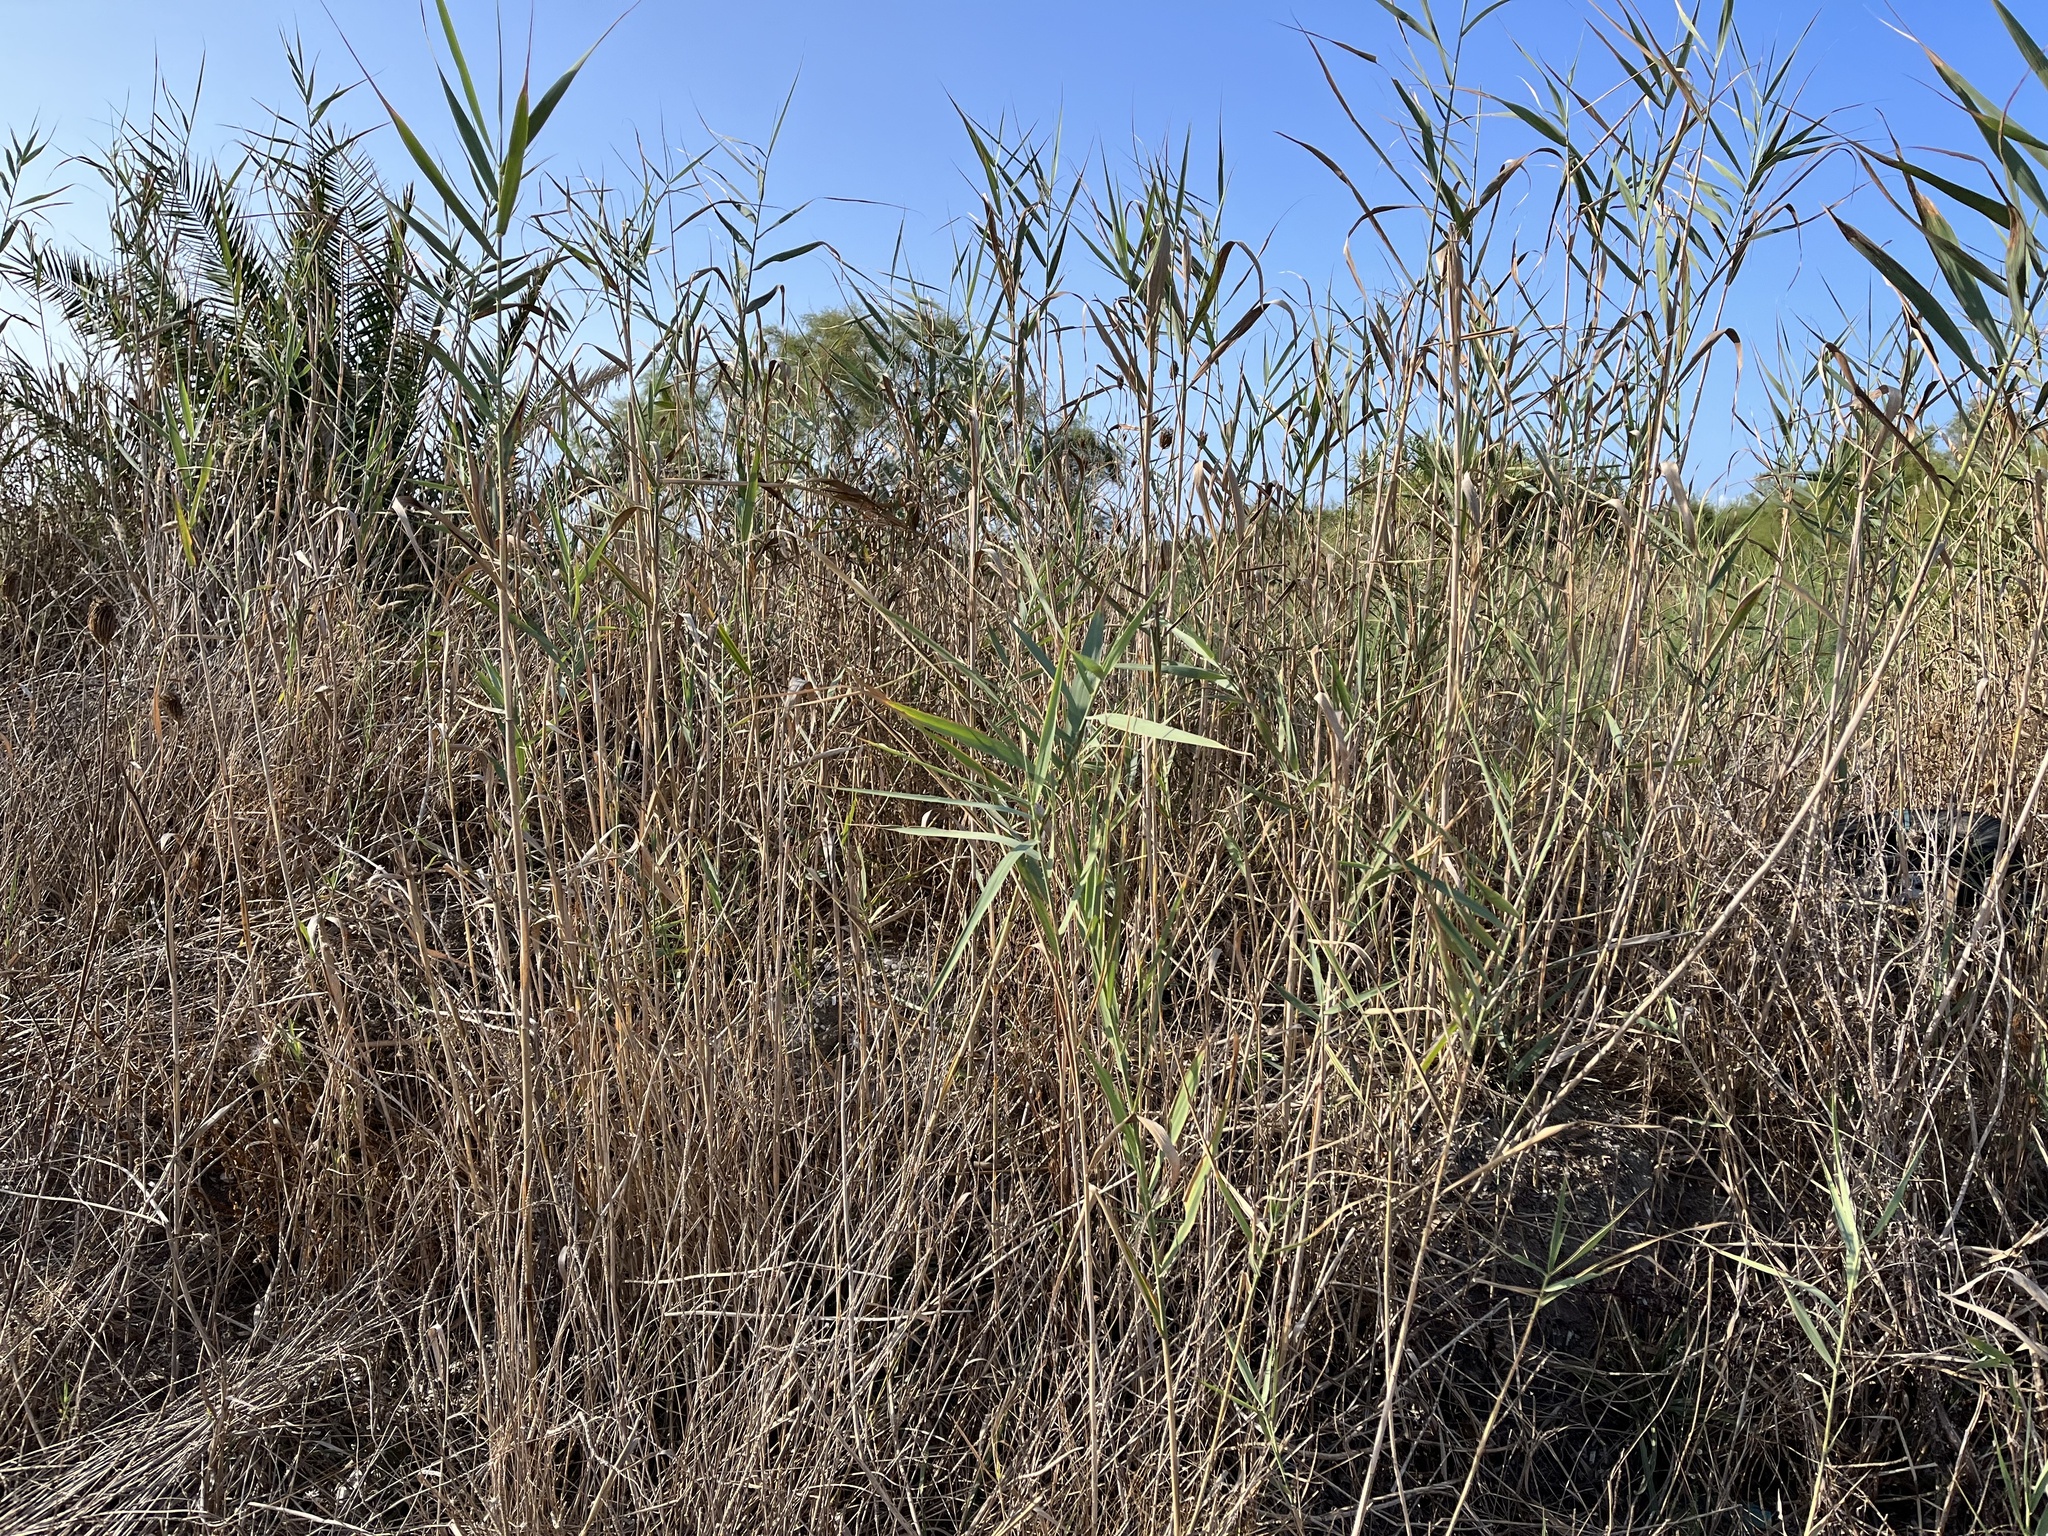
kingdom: Plantae
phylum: Tracheophyta
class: Liliopsida
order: Poales
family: Poaceae
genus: Phragmites
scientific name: Phragmites australis
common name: Common reed
